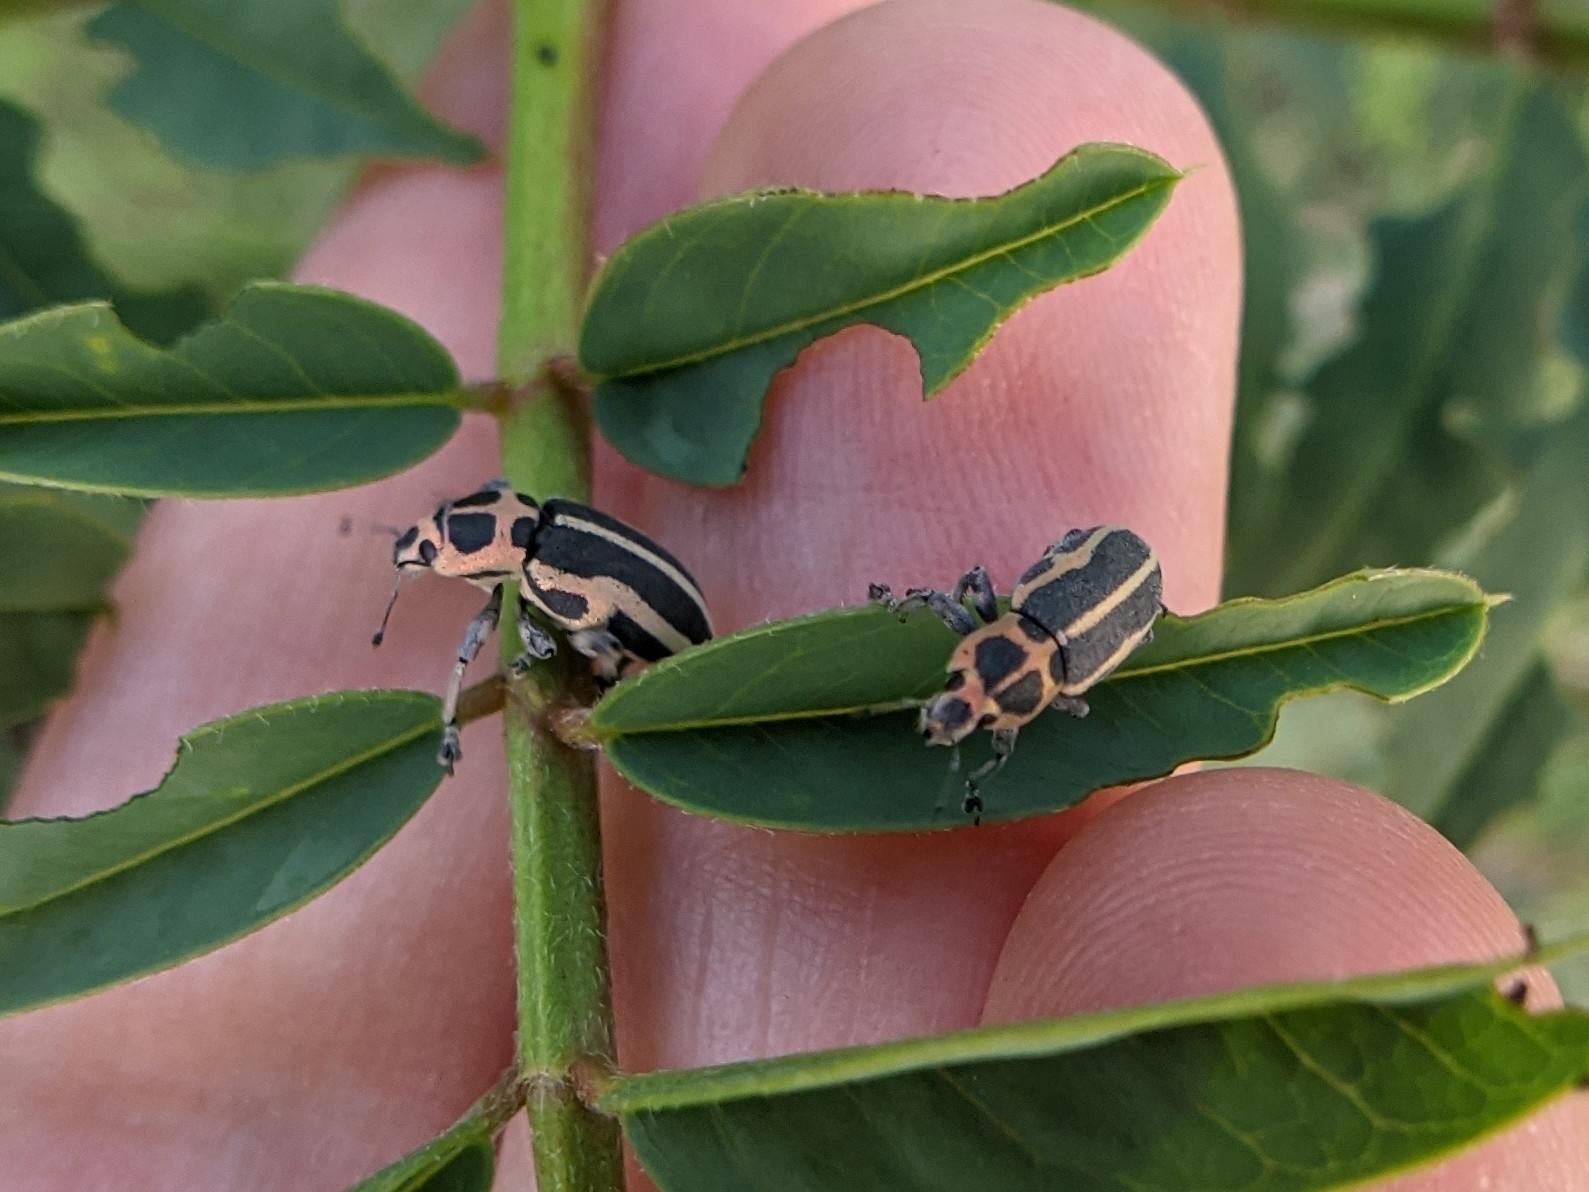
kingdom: Animalia
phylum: Arthropoda
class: Insecta
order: Coleoptera
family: Curculionidae
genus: Eudiagogus
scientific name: Eudiagogus pulcher
